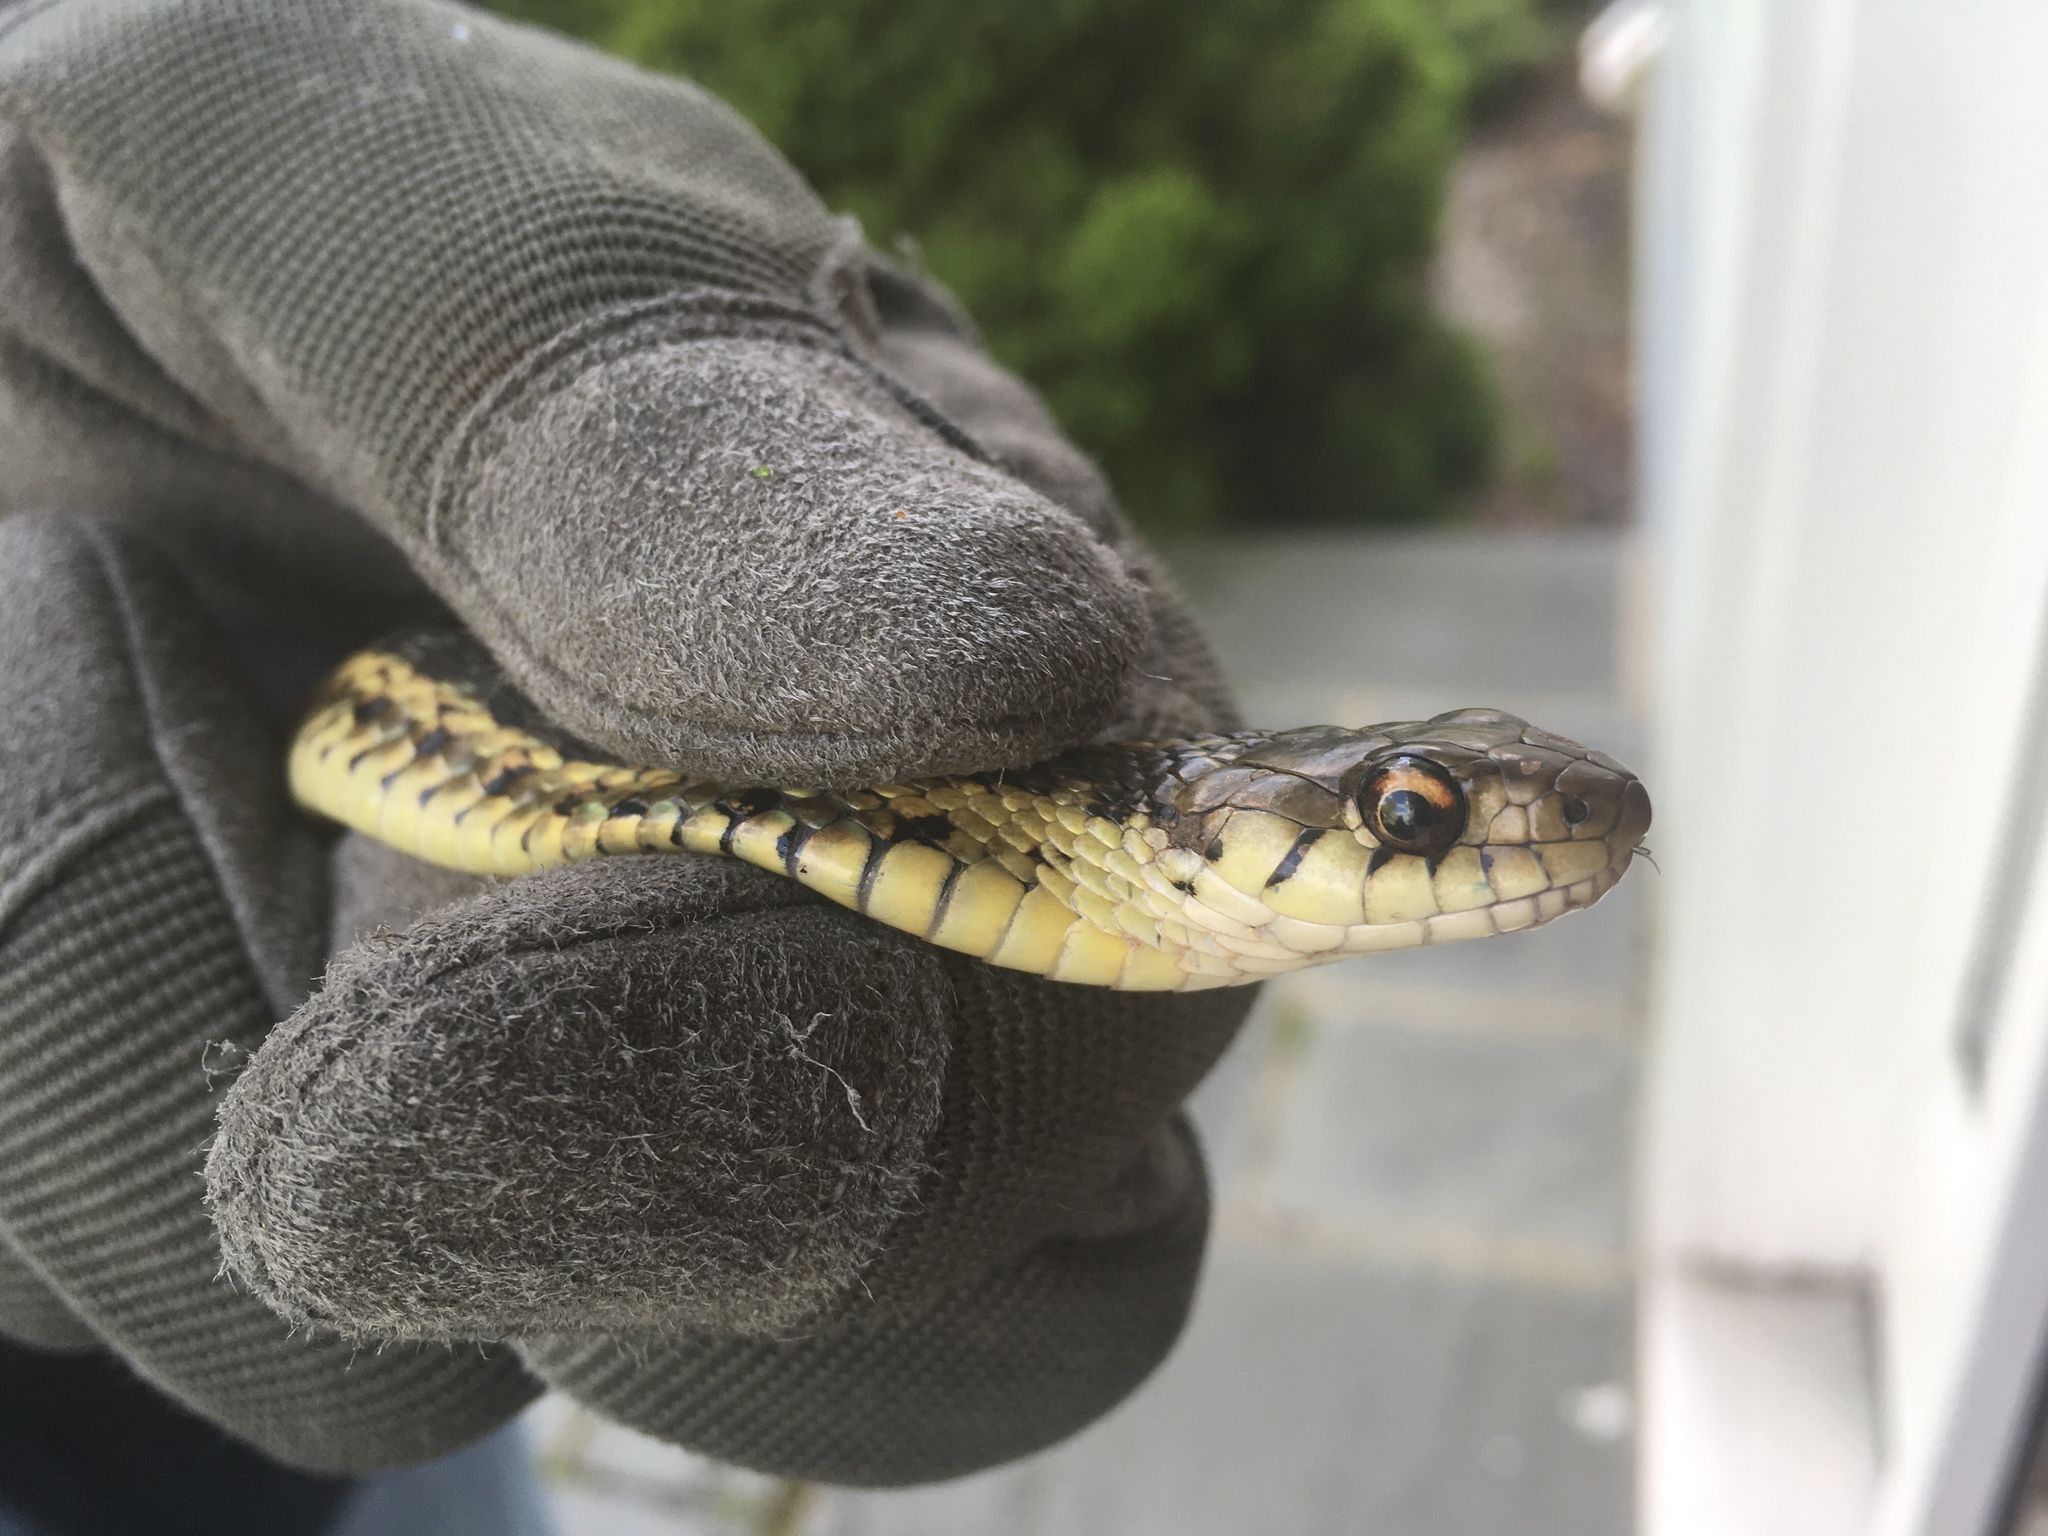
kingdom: Animalia
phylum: Chordata
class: Squamata
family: Colubridae
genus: Thamnophis
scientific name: Thamnophis sirtalis
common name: Common garter snake
